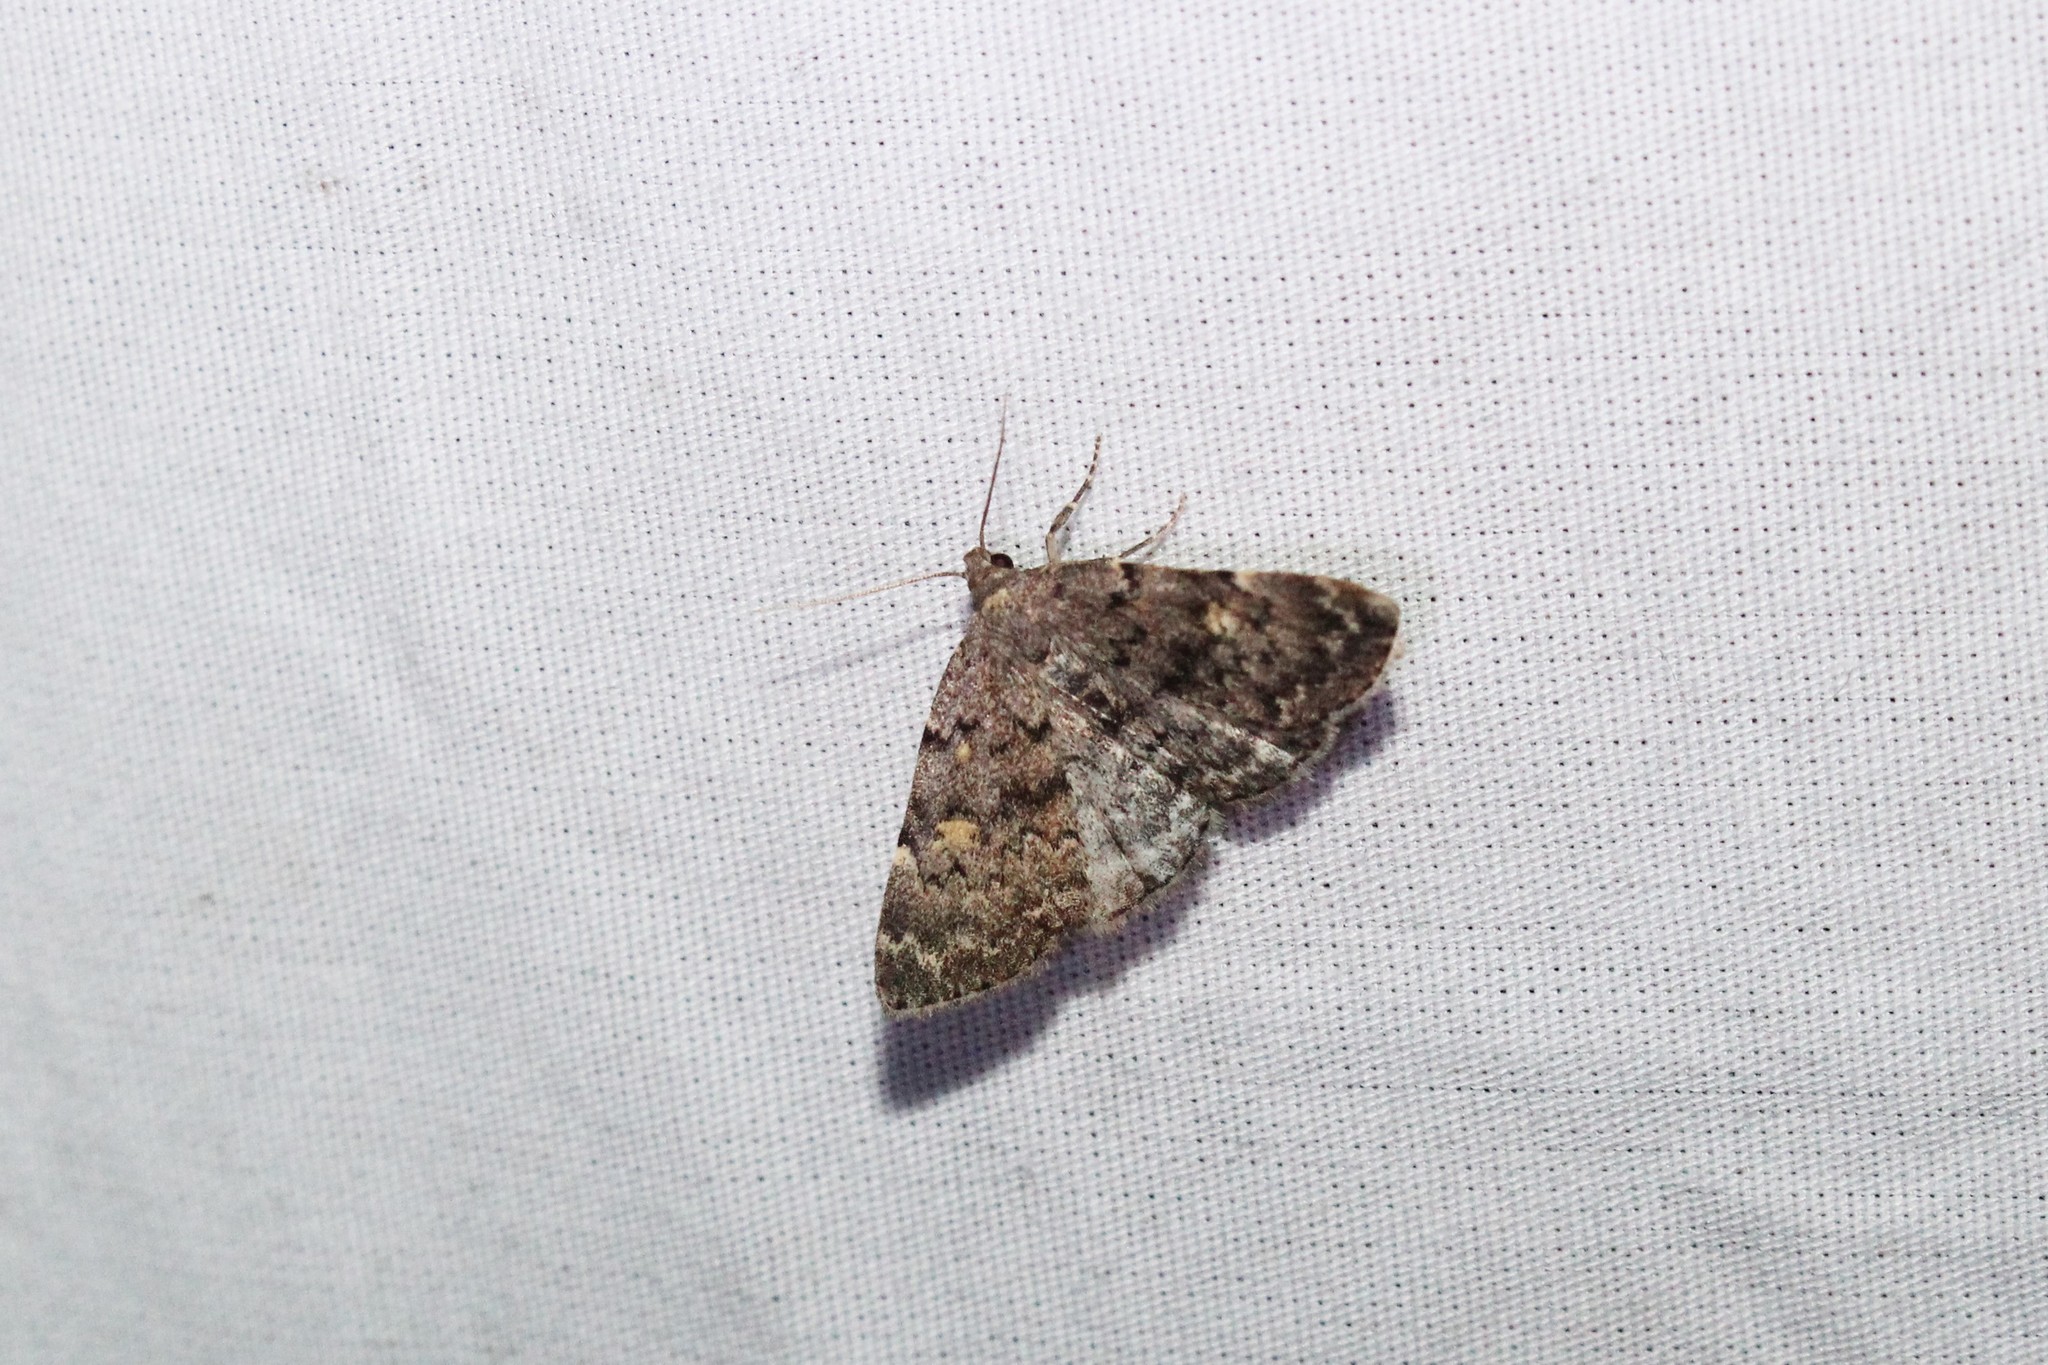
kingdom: Animalia
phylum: Arthropoda
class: Insecta
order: Lepidoptera
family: Erebidae
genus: Idia
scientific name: Idia aemula
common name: Common idia moth
